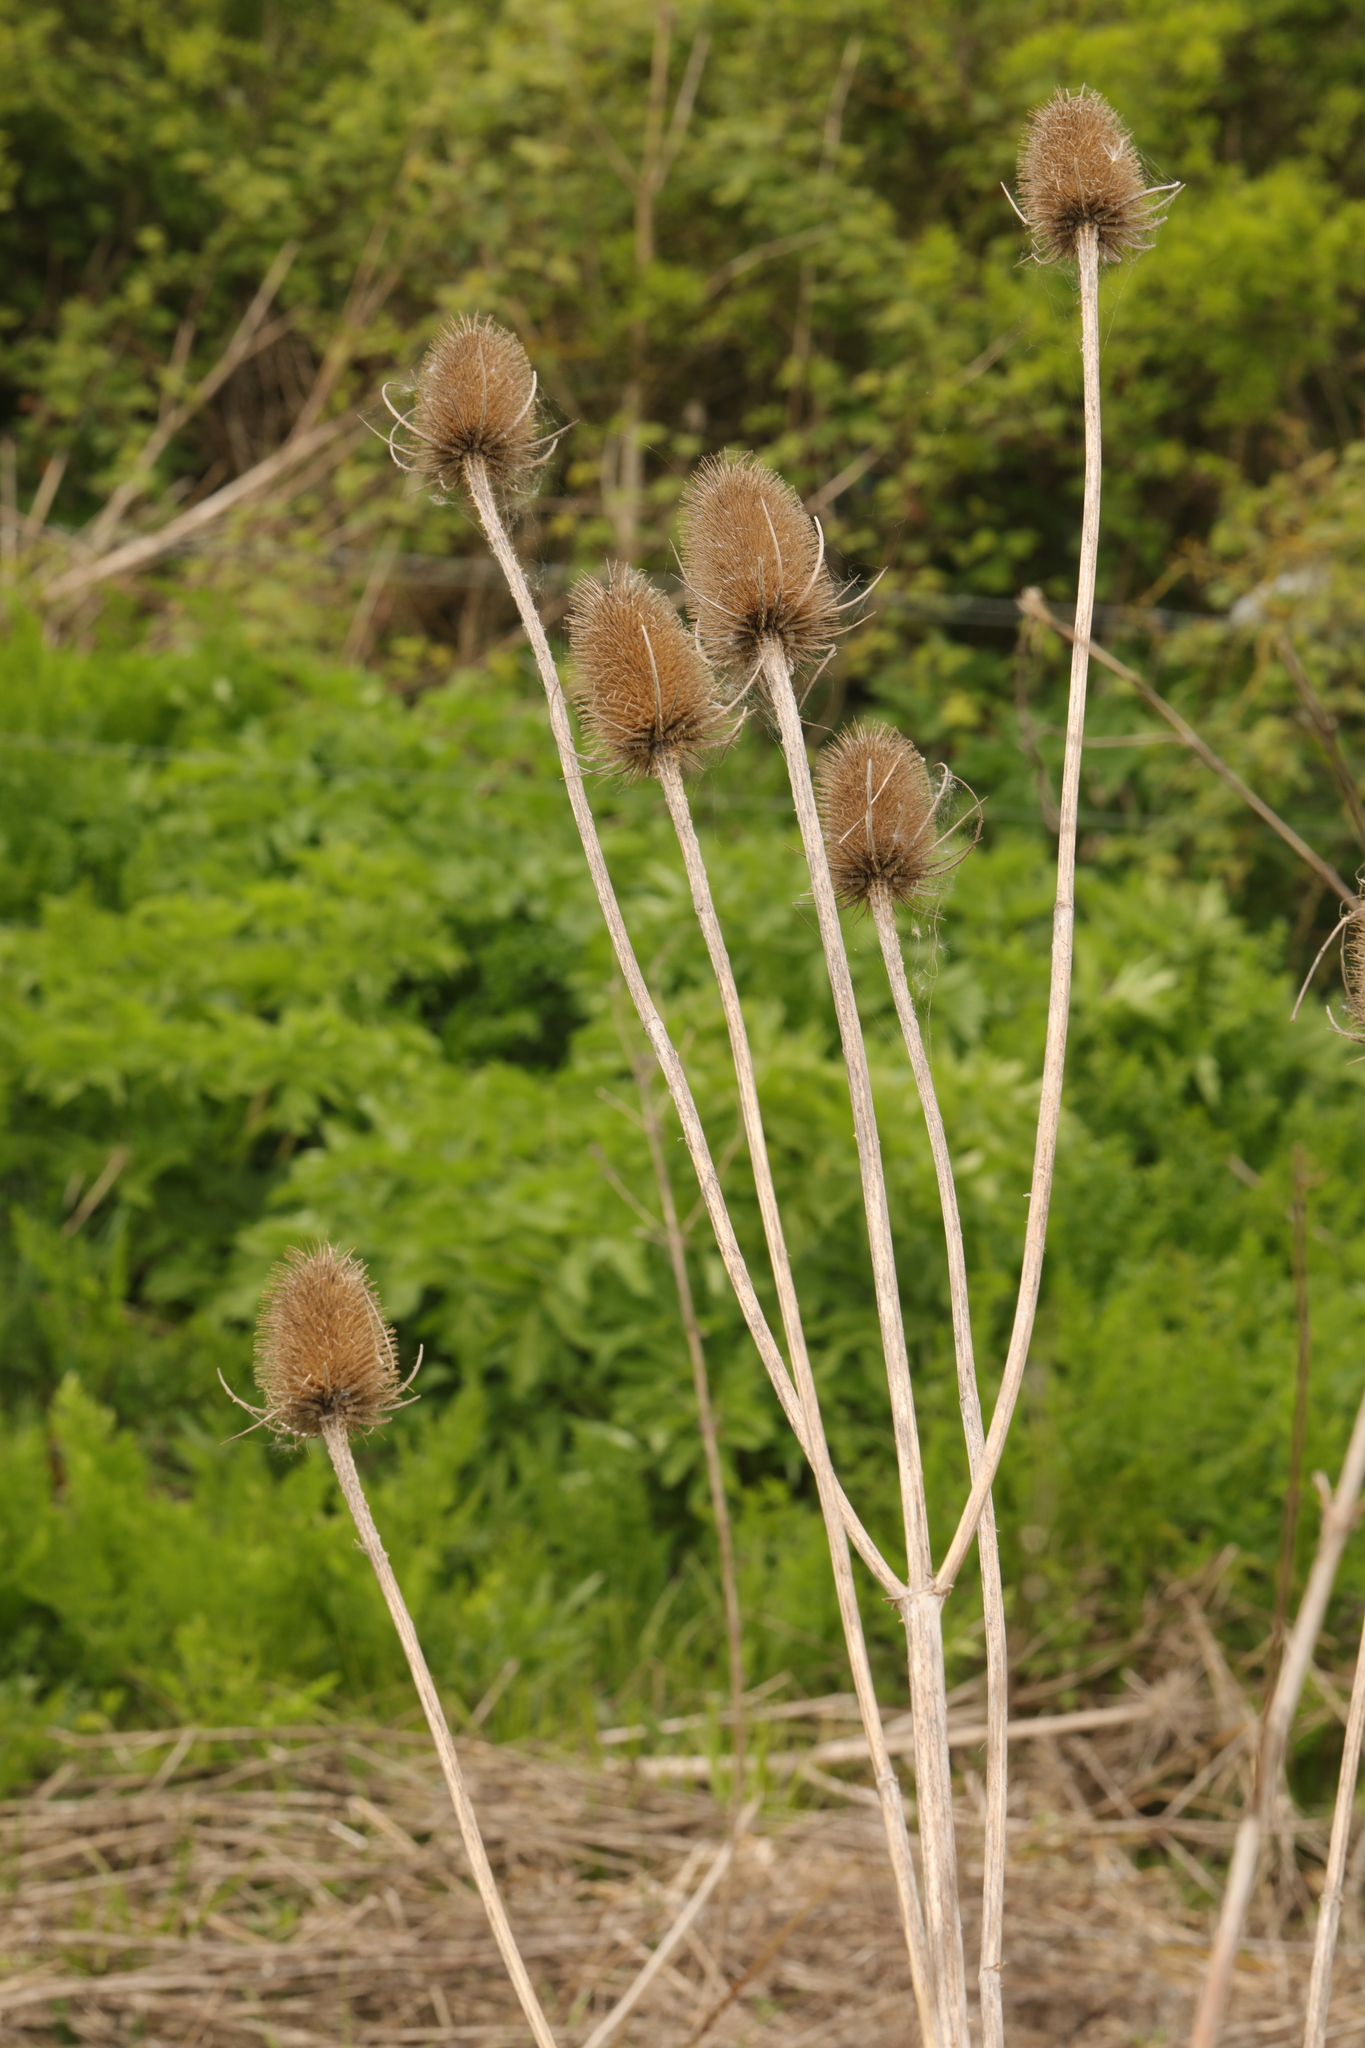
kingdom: Plantae
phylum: Tracheophyta
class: Magnoliopsida
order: Dipsacales
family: Caprifoliaceae
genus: Dipsacus
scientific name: Dipsacus fullonum
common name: Teasel
